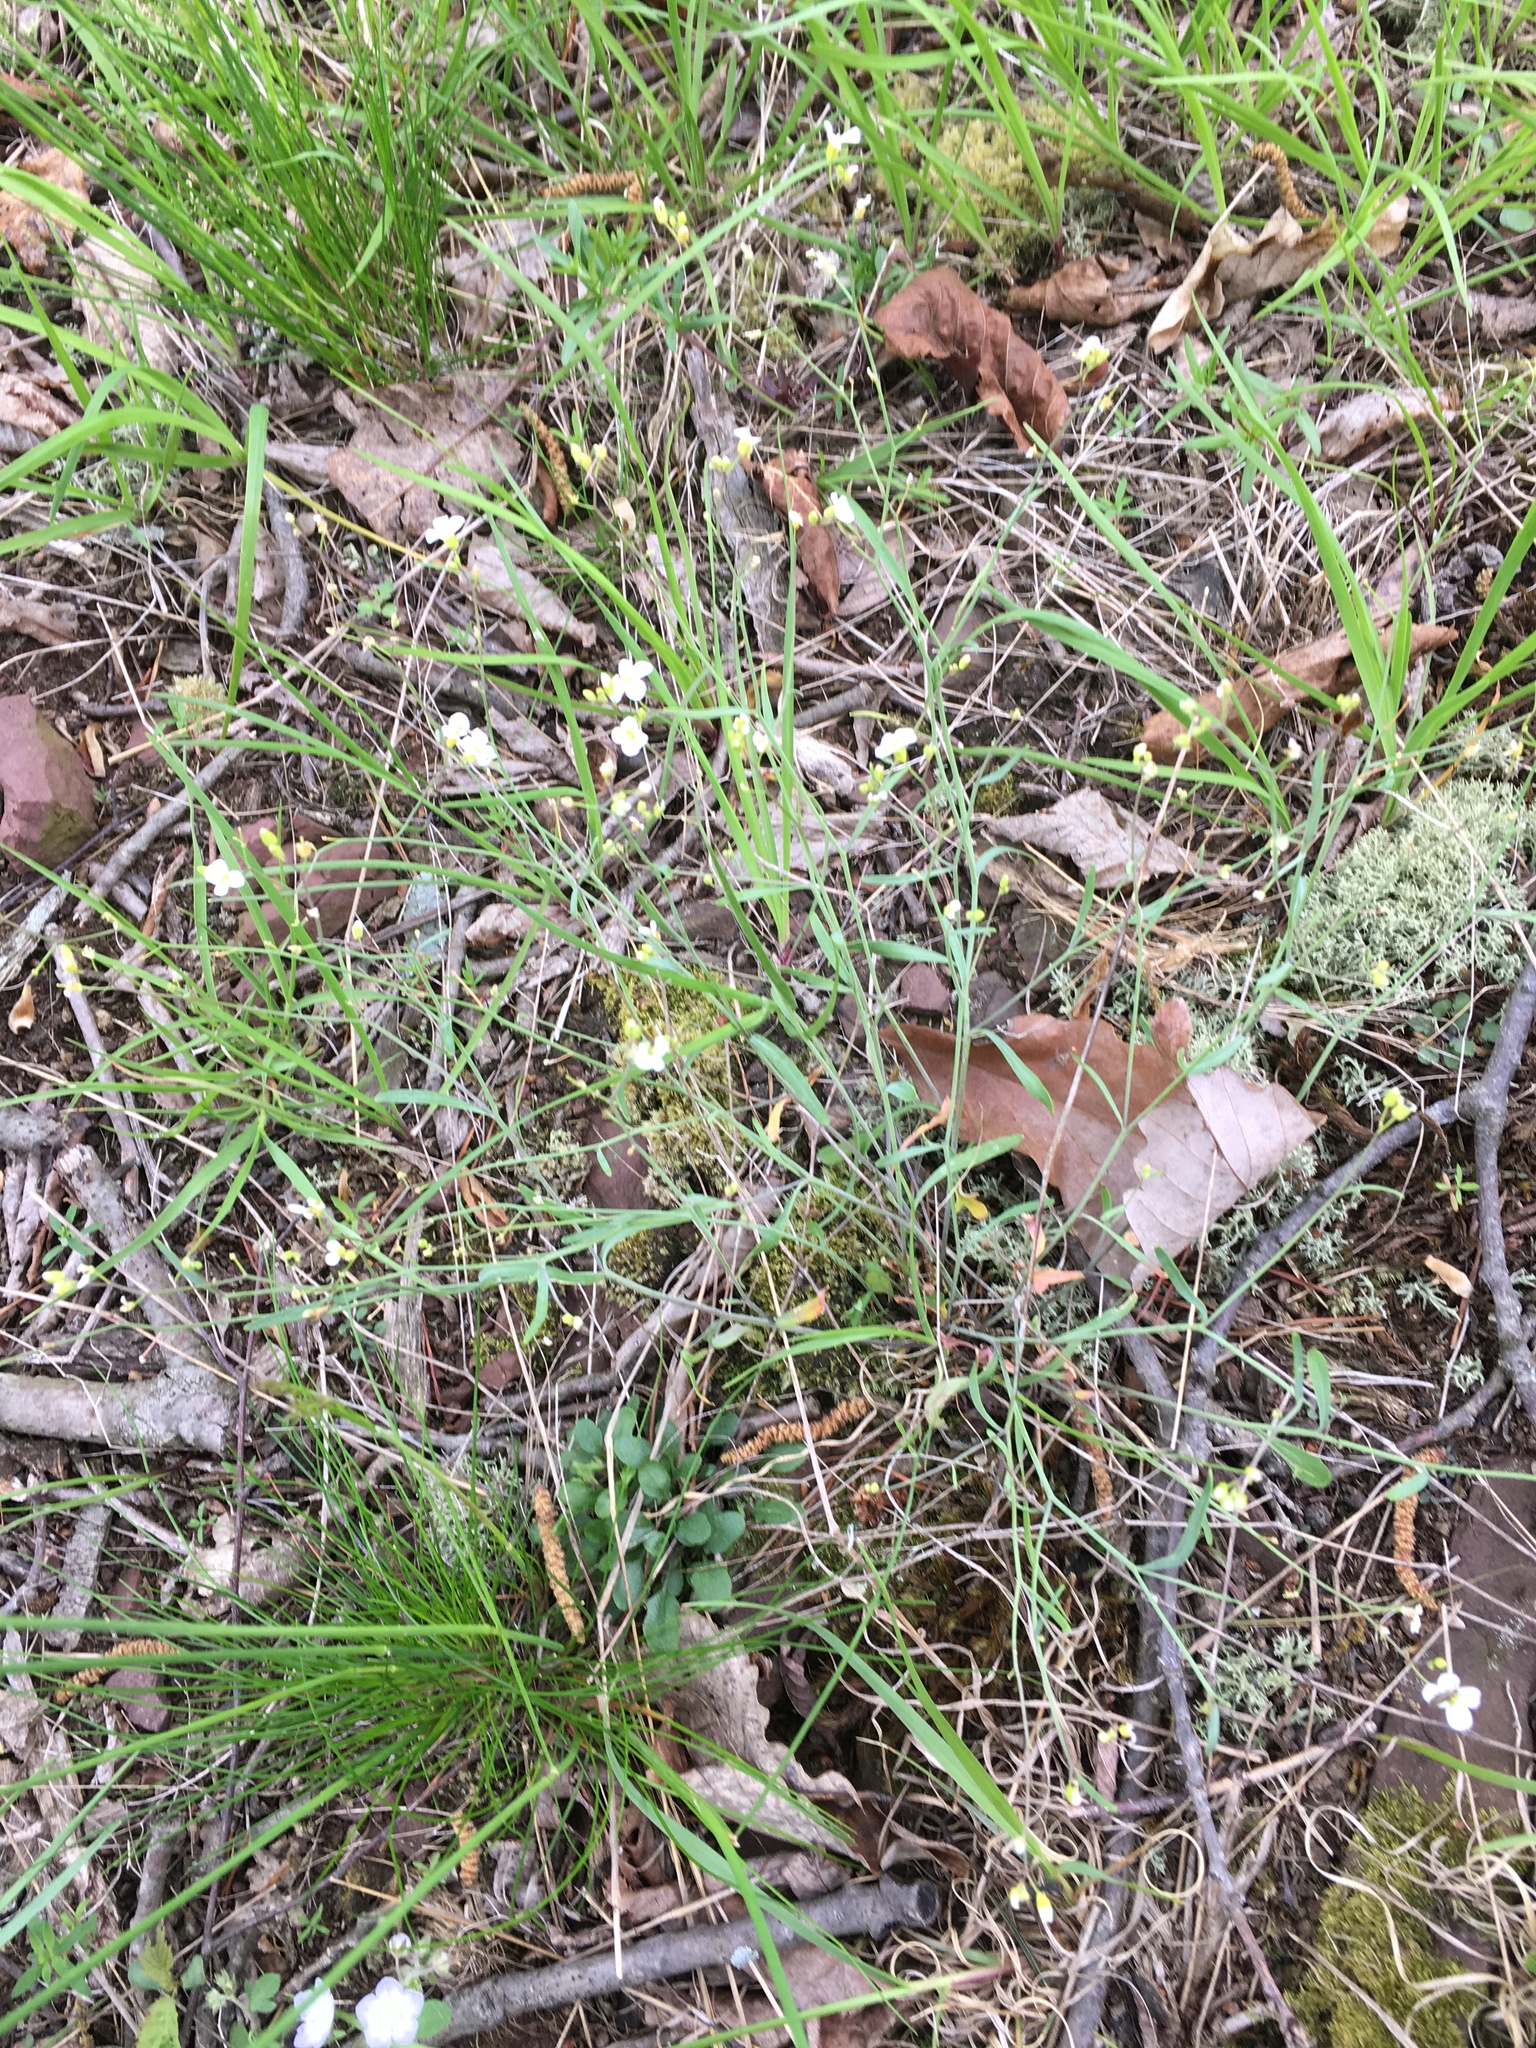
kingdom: Plantae
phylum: Tracheophyta
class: Magnoliopsida
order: Brassicales
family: Brassicaceae
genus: Arabidopsis
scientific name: Arabidopsis lyrata
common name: Lyrate rockcress
